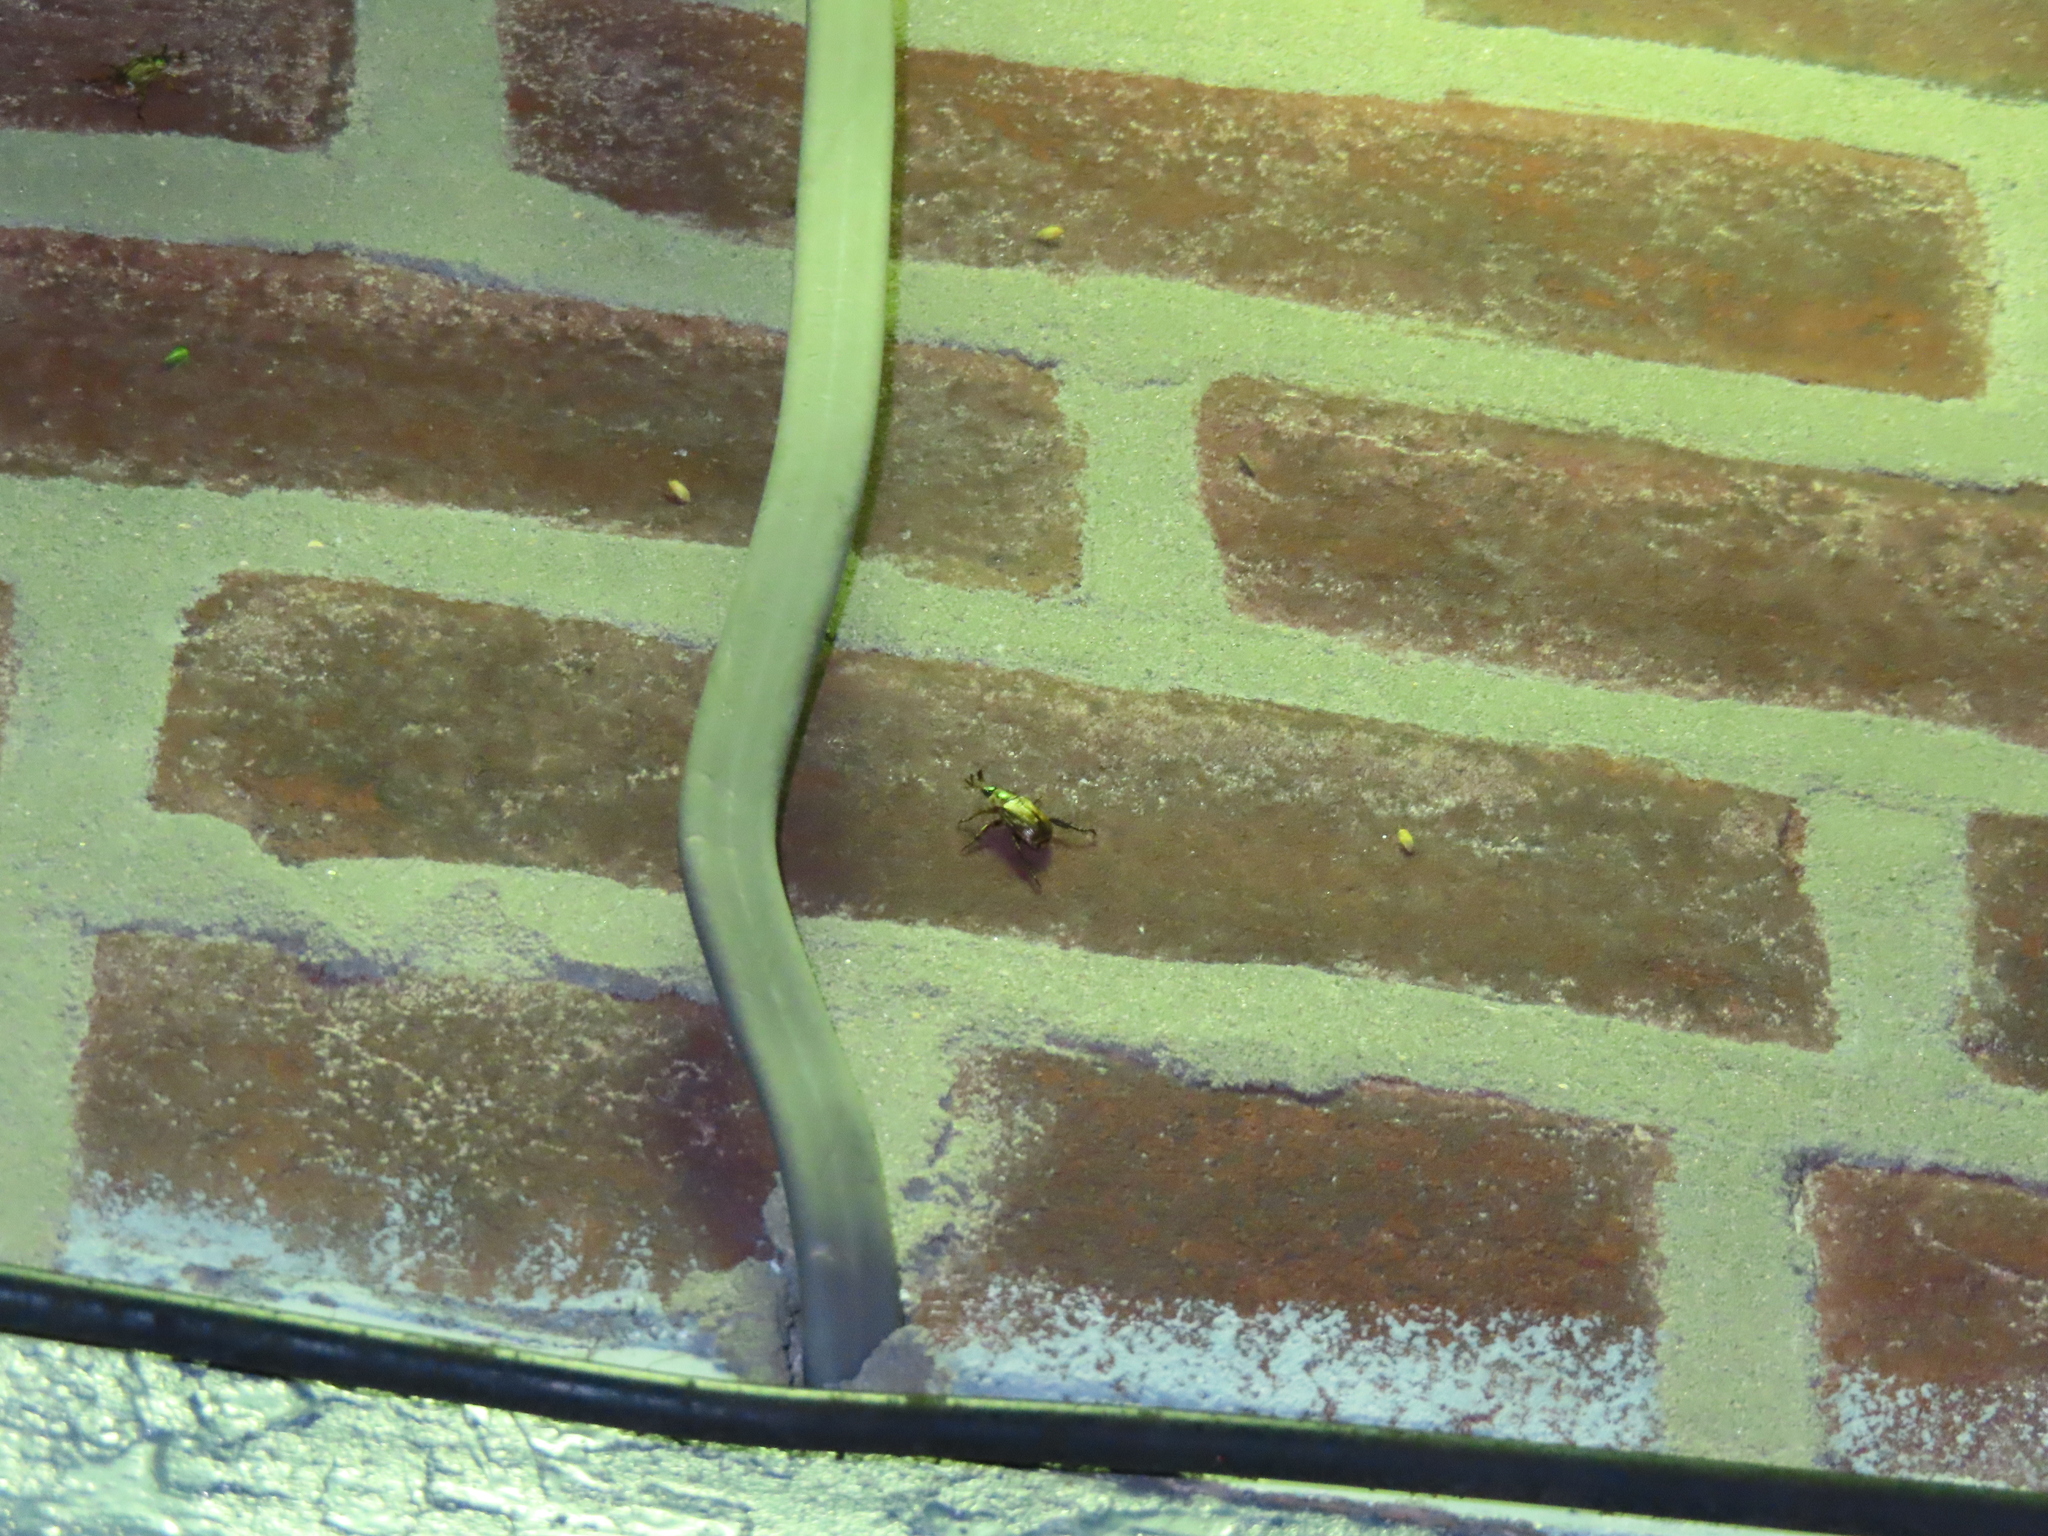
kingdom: Animalia
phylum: Arthropoda
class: Insecta
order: Coleoptera
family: Scarabaeidae
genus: Exomala
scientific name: Exomala orientalis
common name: Oriental beetle
